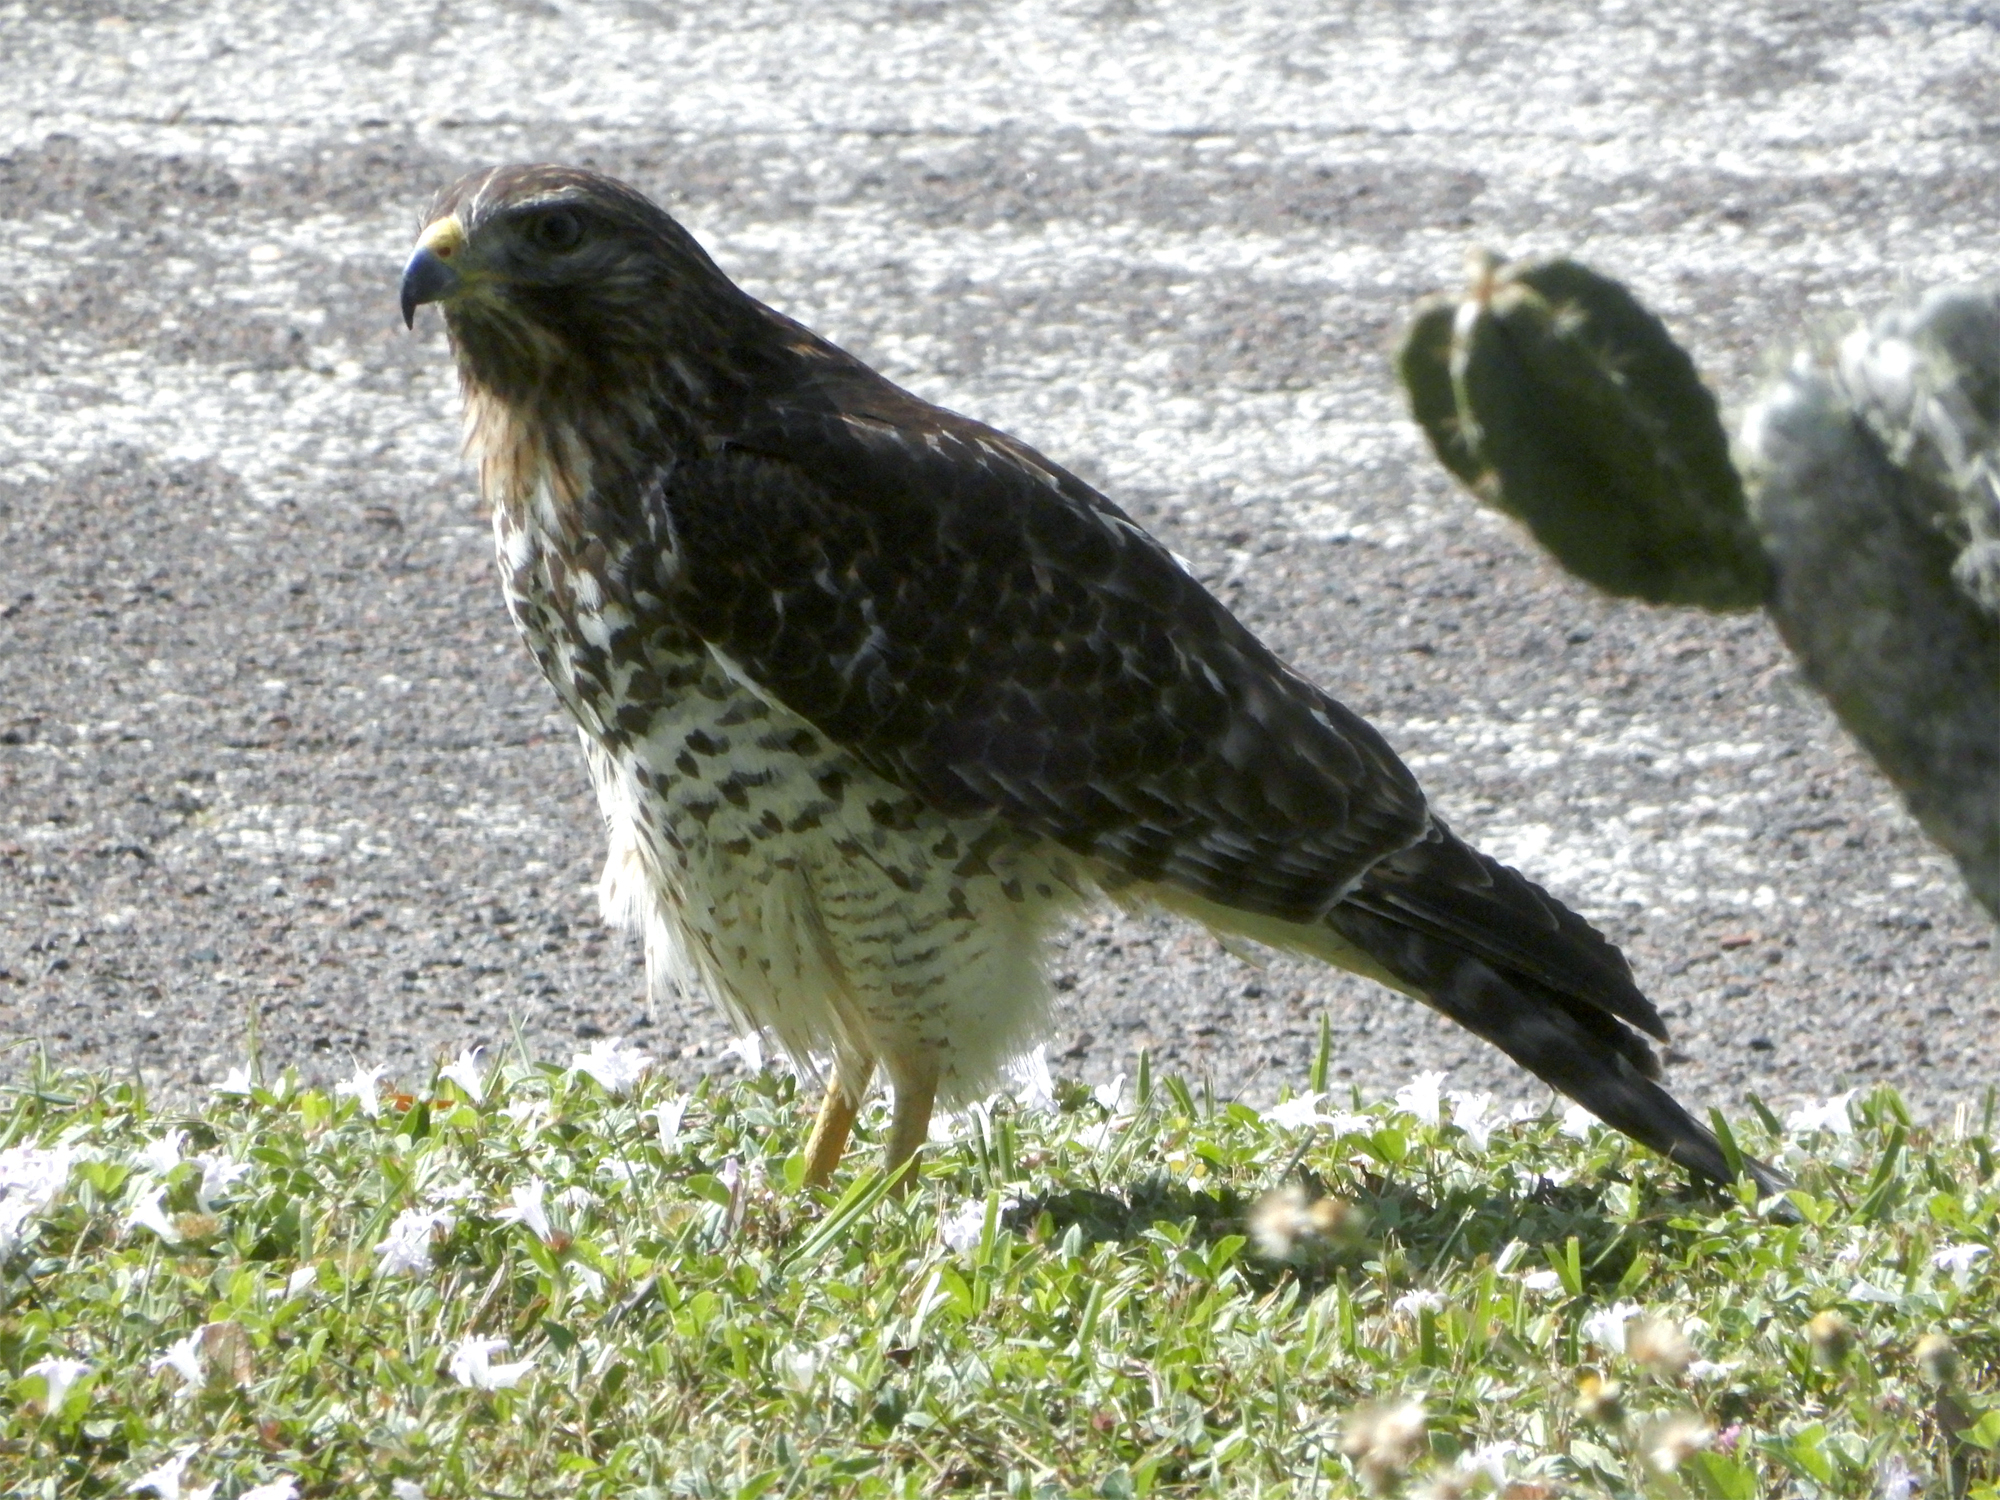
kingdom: Animalia
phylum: Chordata
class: Aves
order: Accipitriformes
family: Accipitridae
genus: Buteo
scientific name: Buteo lineatus
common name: Red-shouldered hawk
